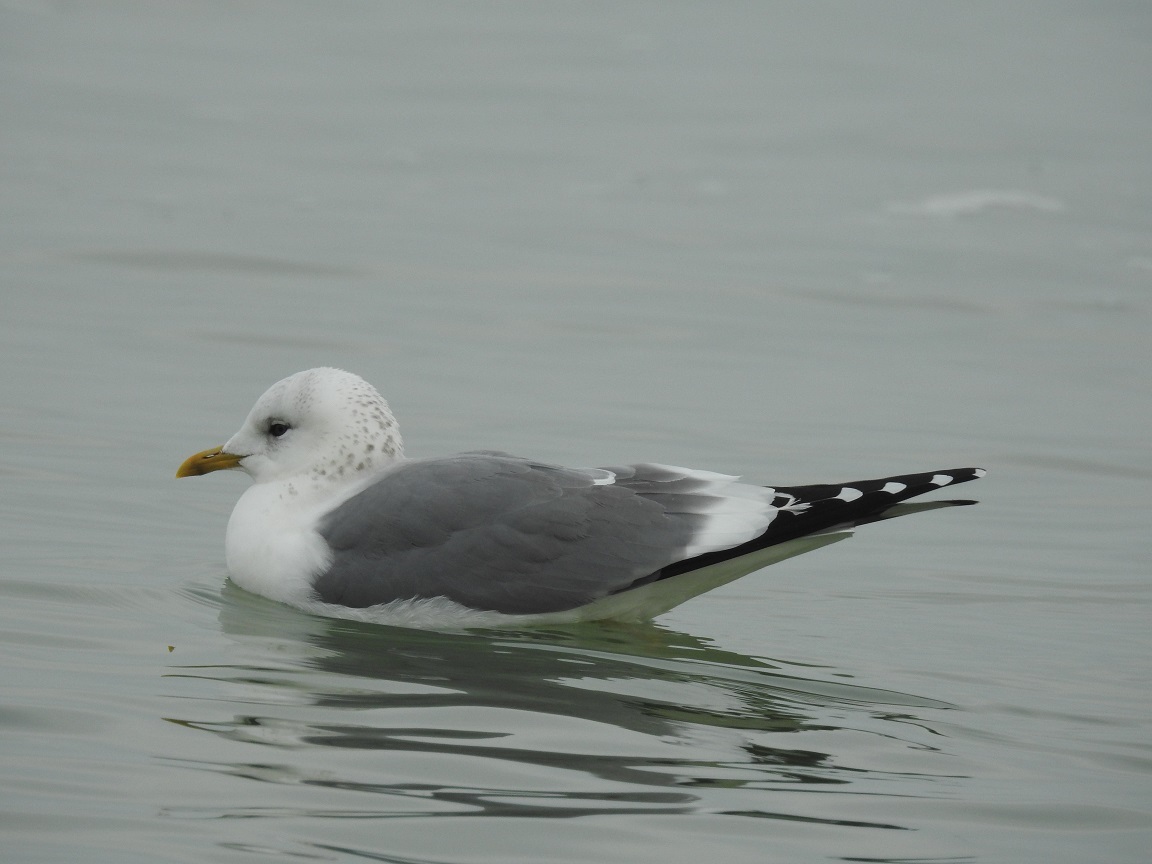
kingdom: Animalia
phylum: Chordata
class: Aves
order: Charadriiformes
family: Laridae
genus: Larus
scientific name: Larus canus
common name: Mew gull
